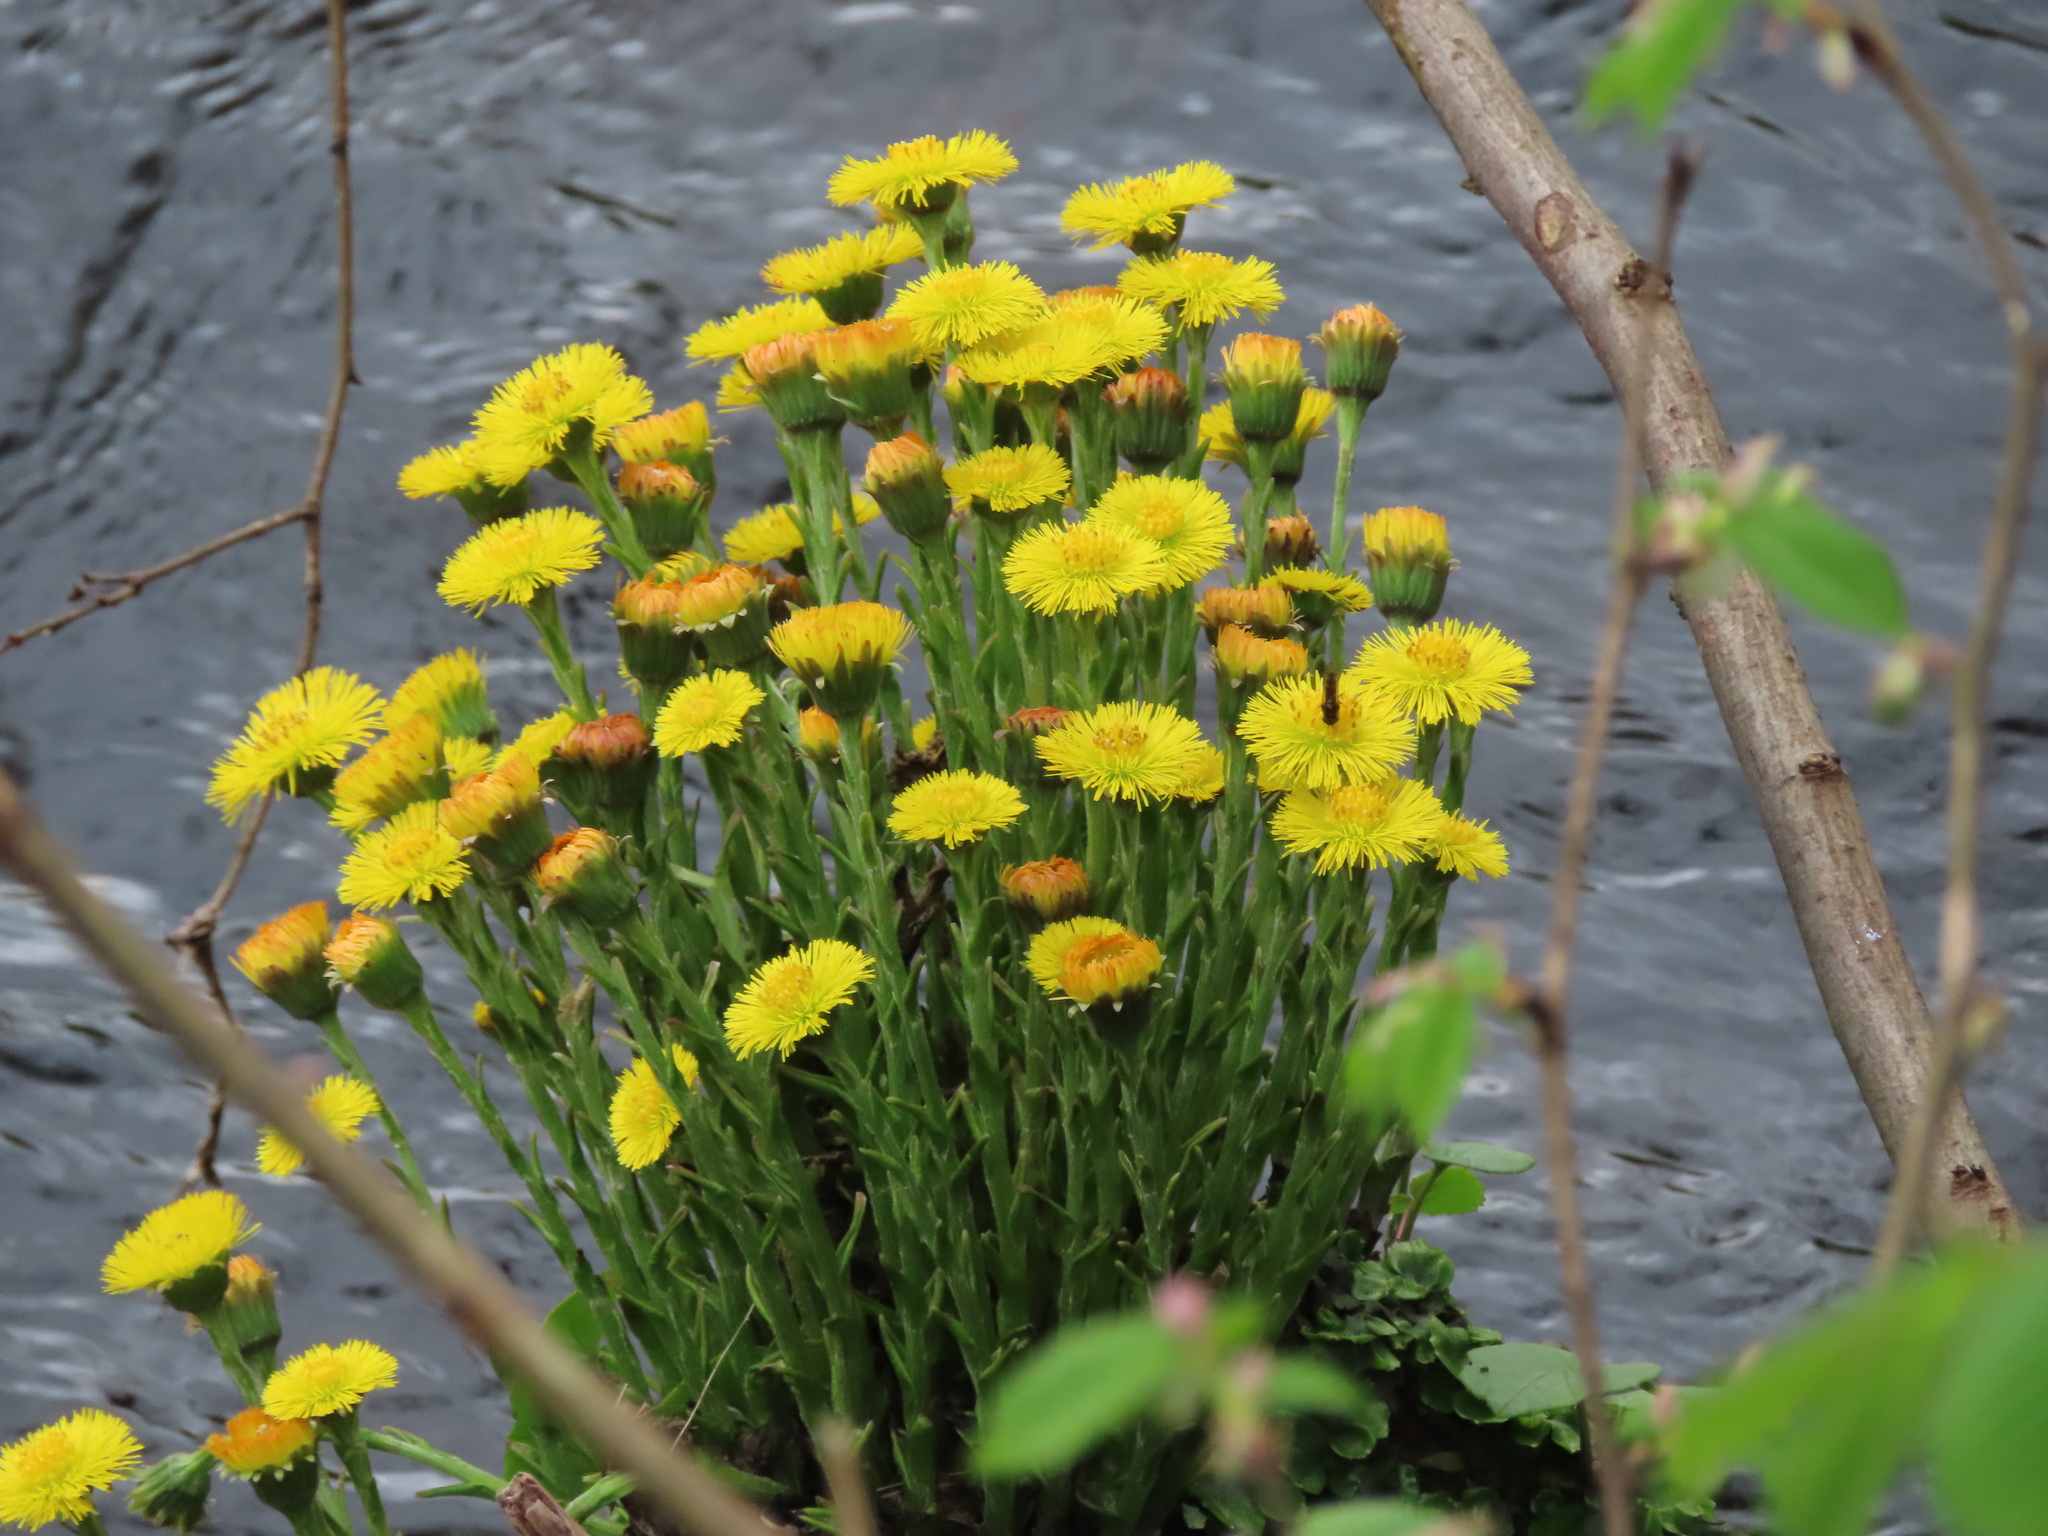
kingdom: Plantae
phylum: Tracheophyta
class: Magnoliopsida
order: Asterales
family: Asteraceae
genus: Tussilago
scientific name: Tussilago farfara
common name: Coltsfoot
